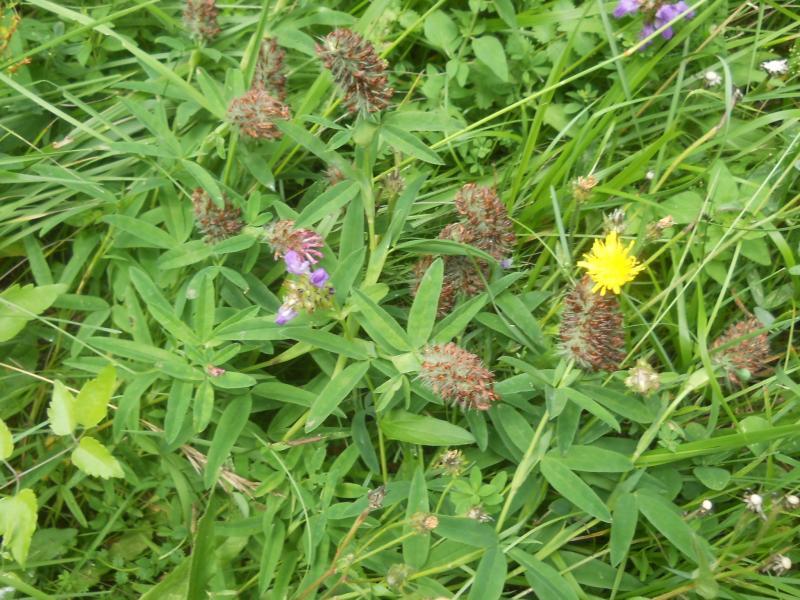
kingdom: Plantae
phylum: Tracheophyta
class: Magnoliopsida
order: Fabales
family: Fabaceae
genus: Trifolium
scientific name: Trifolium rubens
